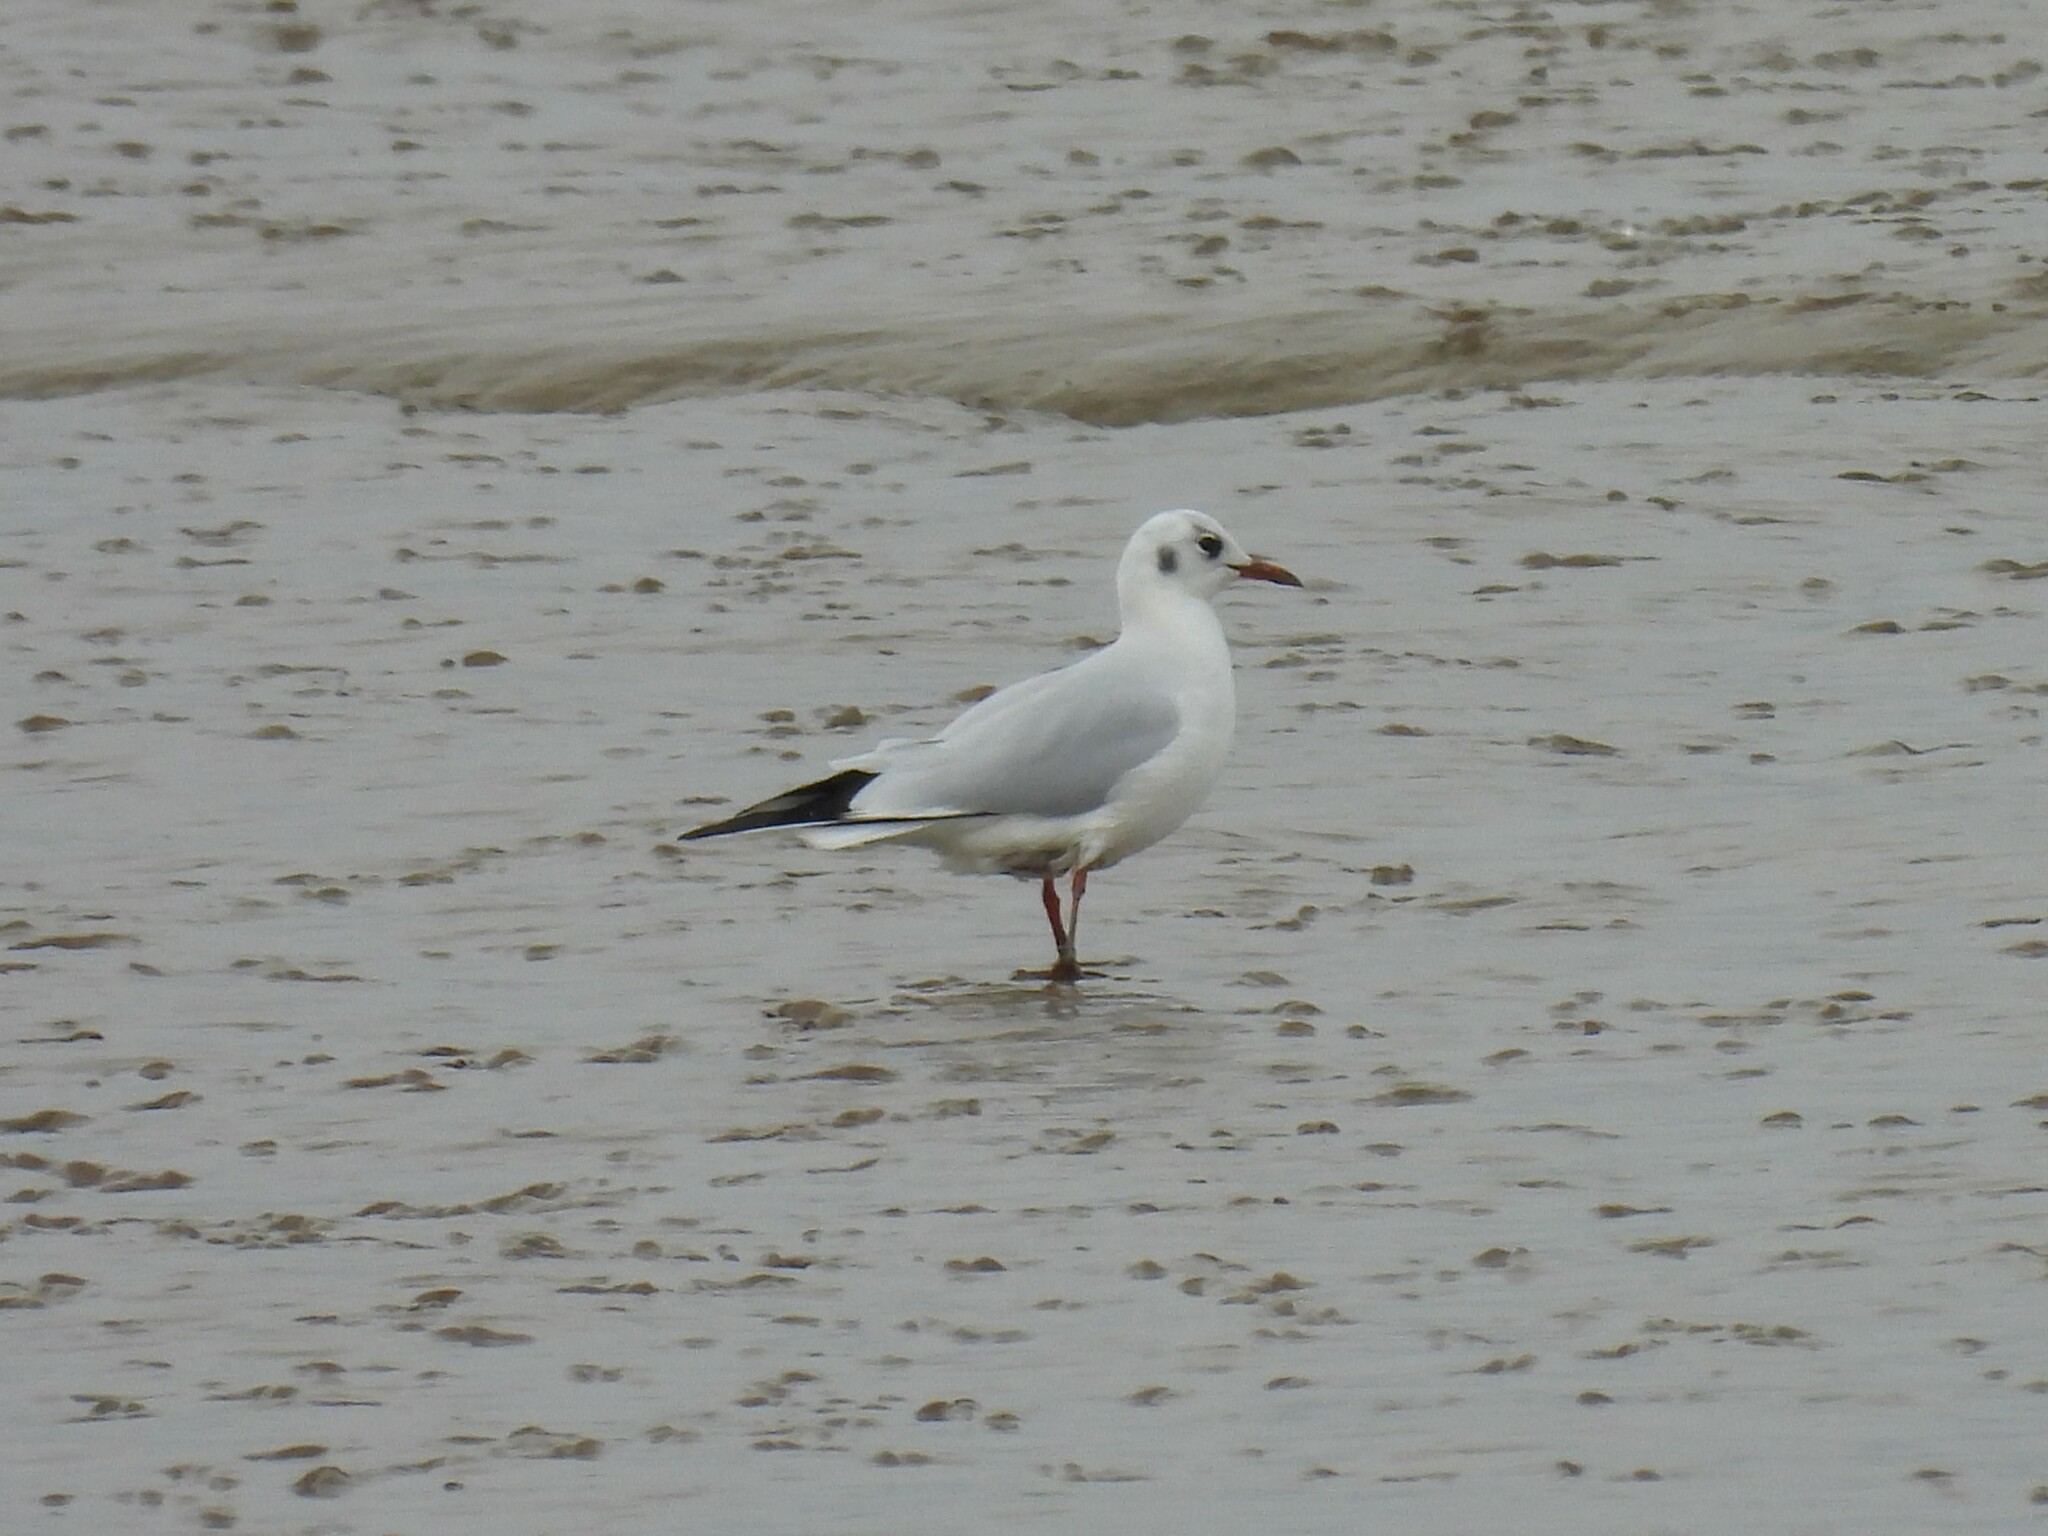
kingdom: Animalia
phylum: Chordata
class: Aves
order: Charadriiformes
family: Laridae
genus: Chroicocephalus
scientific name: Chroicocephalus ridibundus
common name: Black-headed gull
